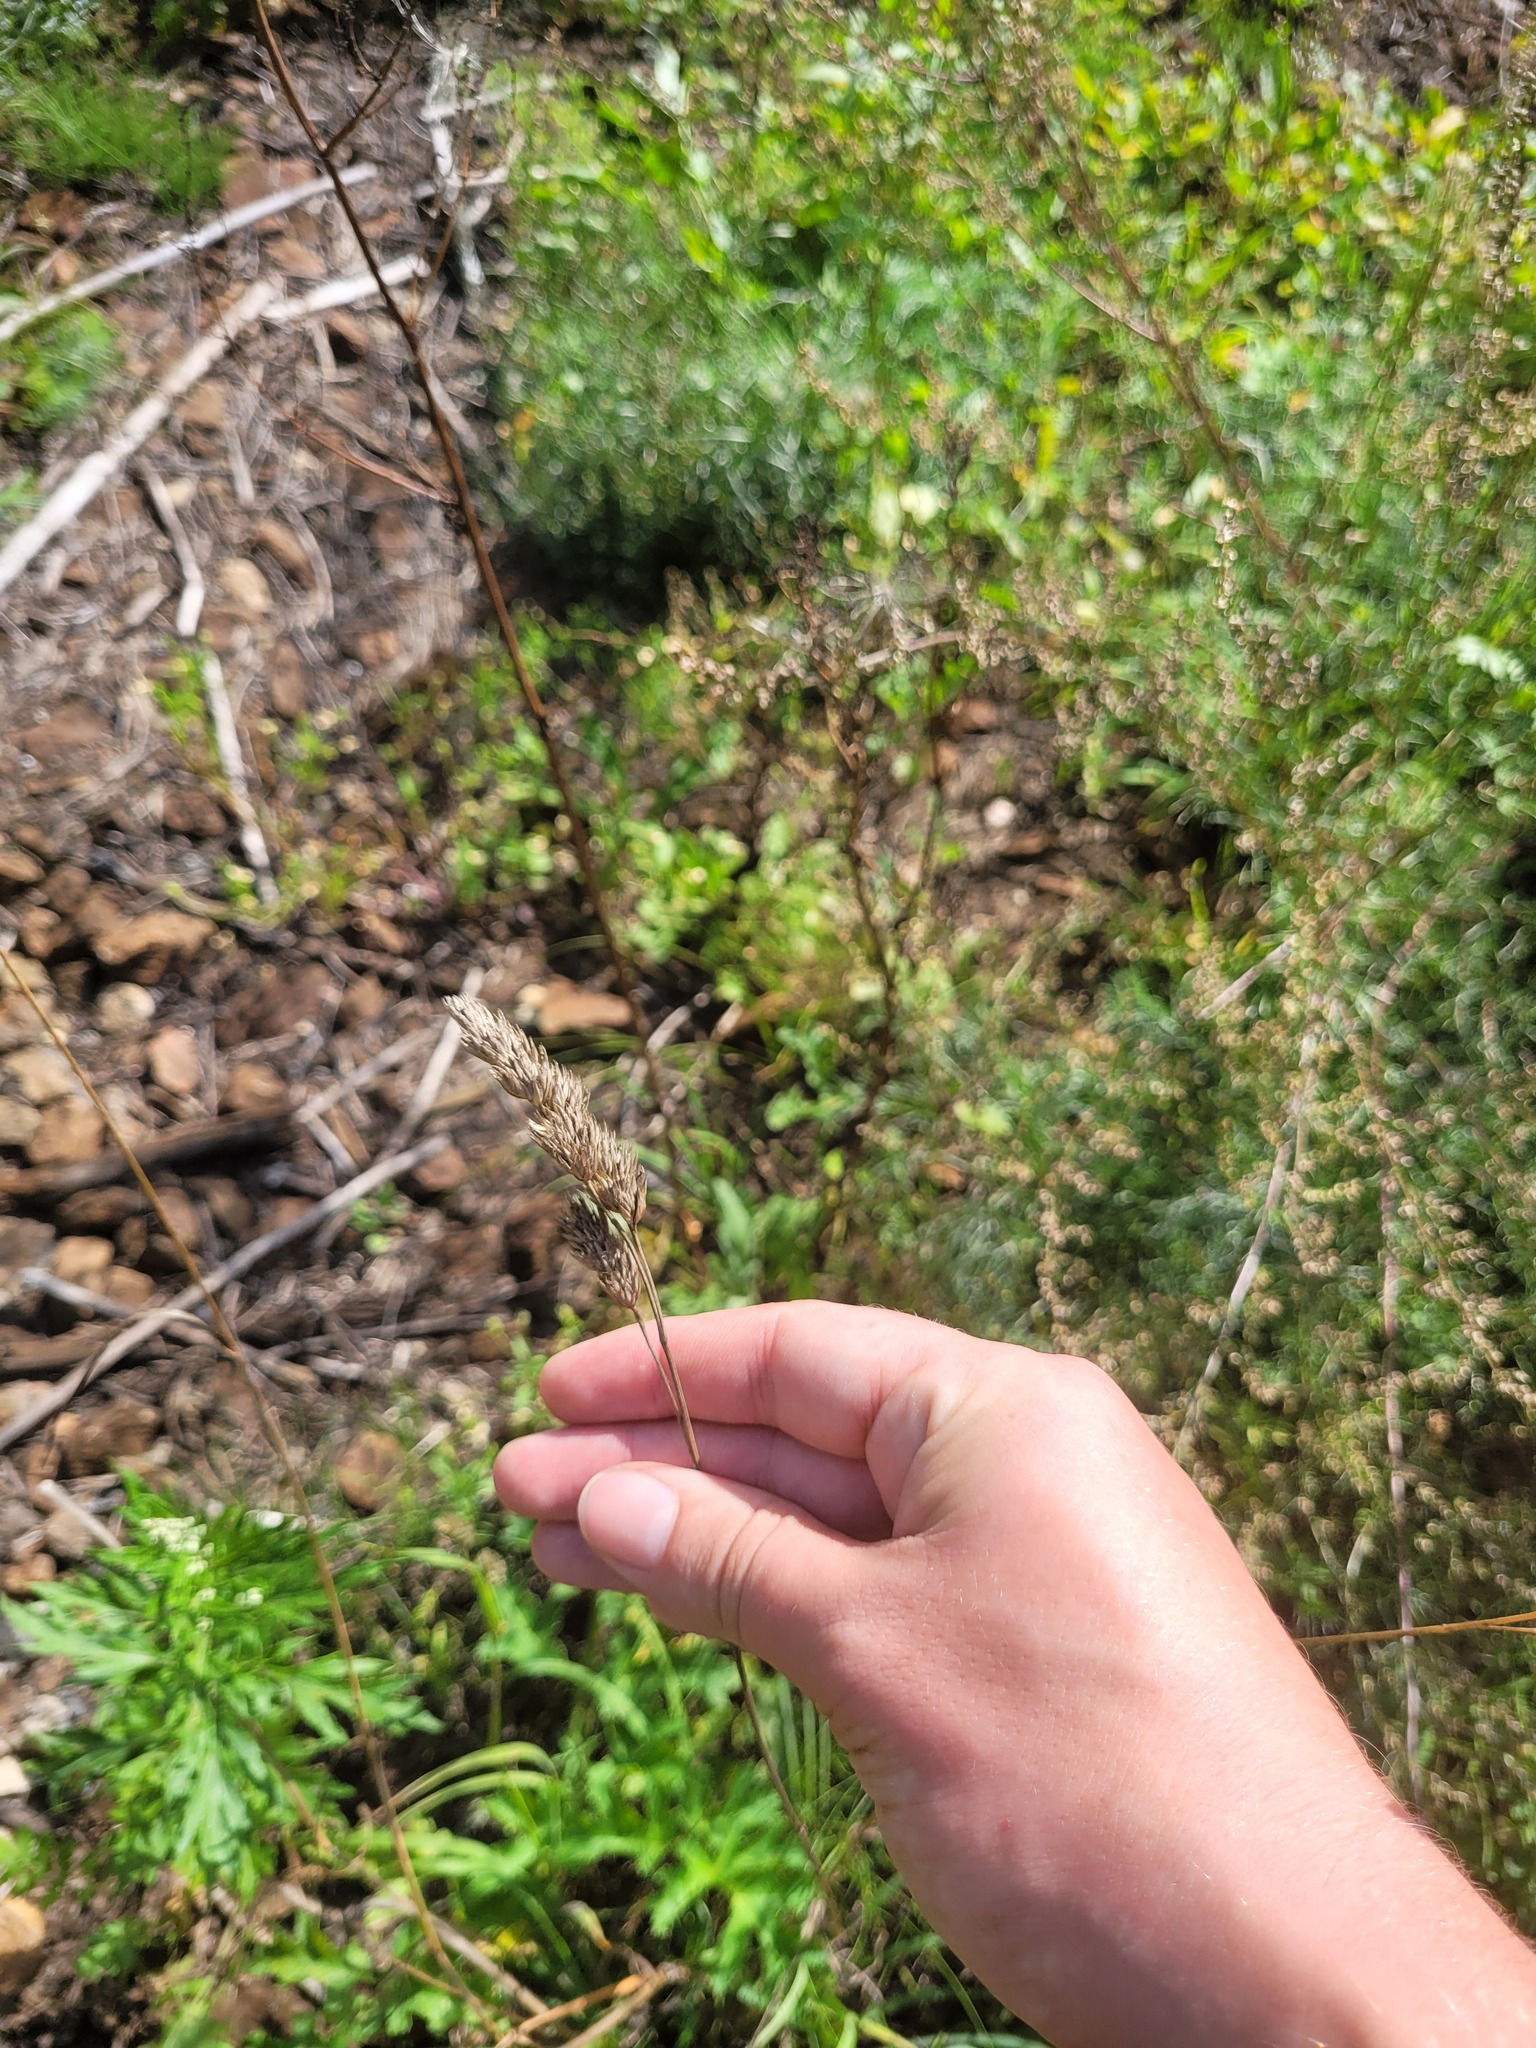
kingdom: Plantae
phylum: Tracheophyta
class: Liliopsida
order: Poales
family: Poaceae
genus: Dactylis
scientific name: Dactylis glomerata
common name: Orchardgrass
